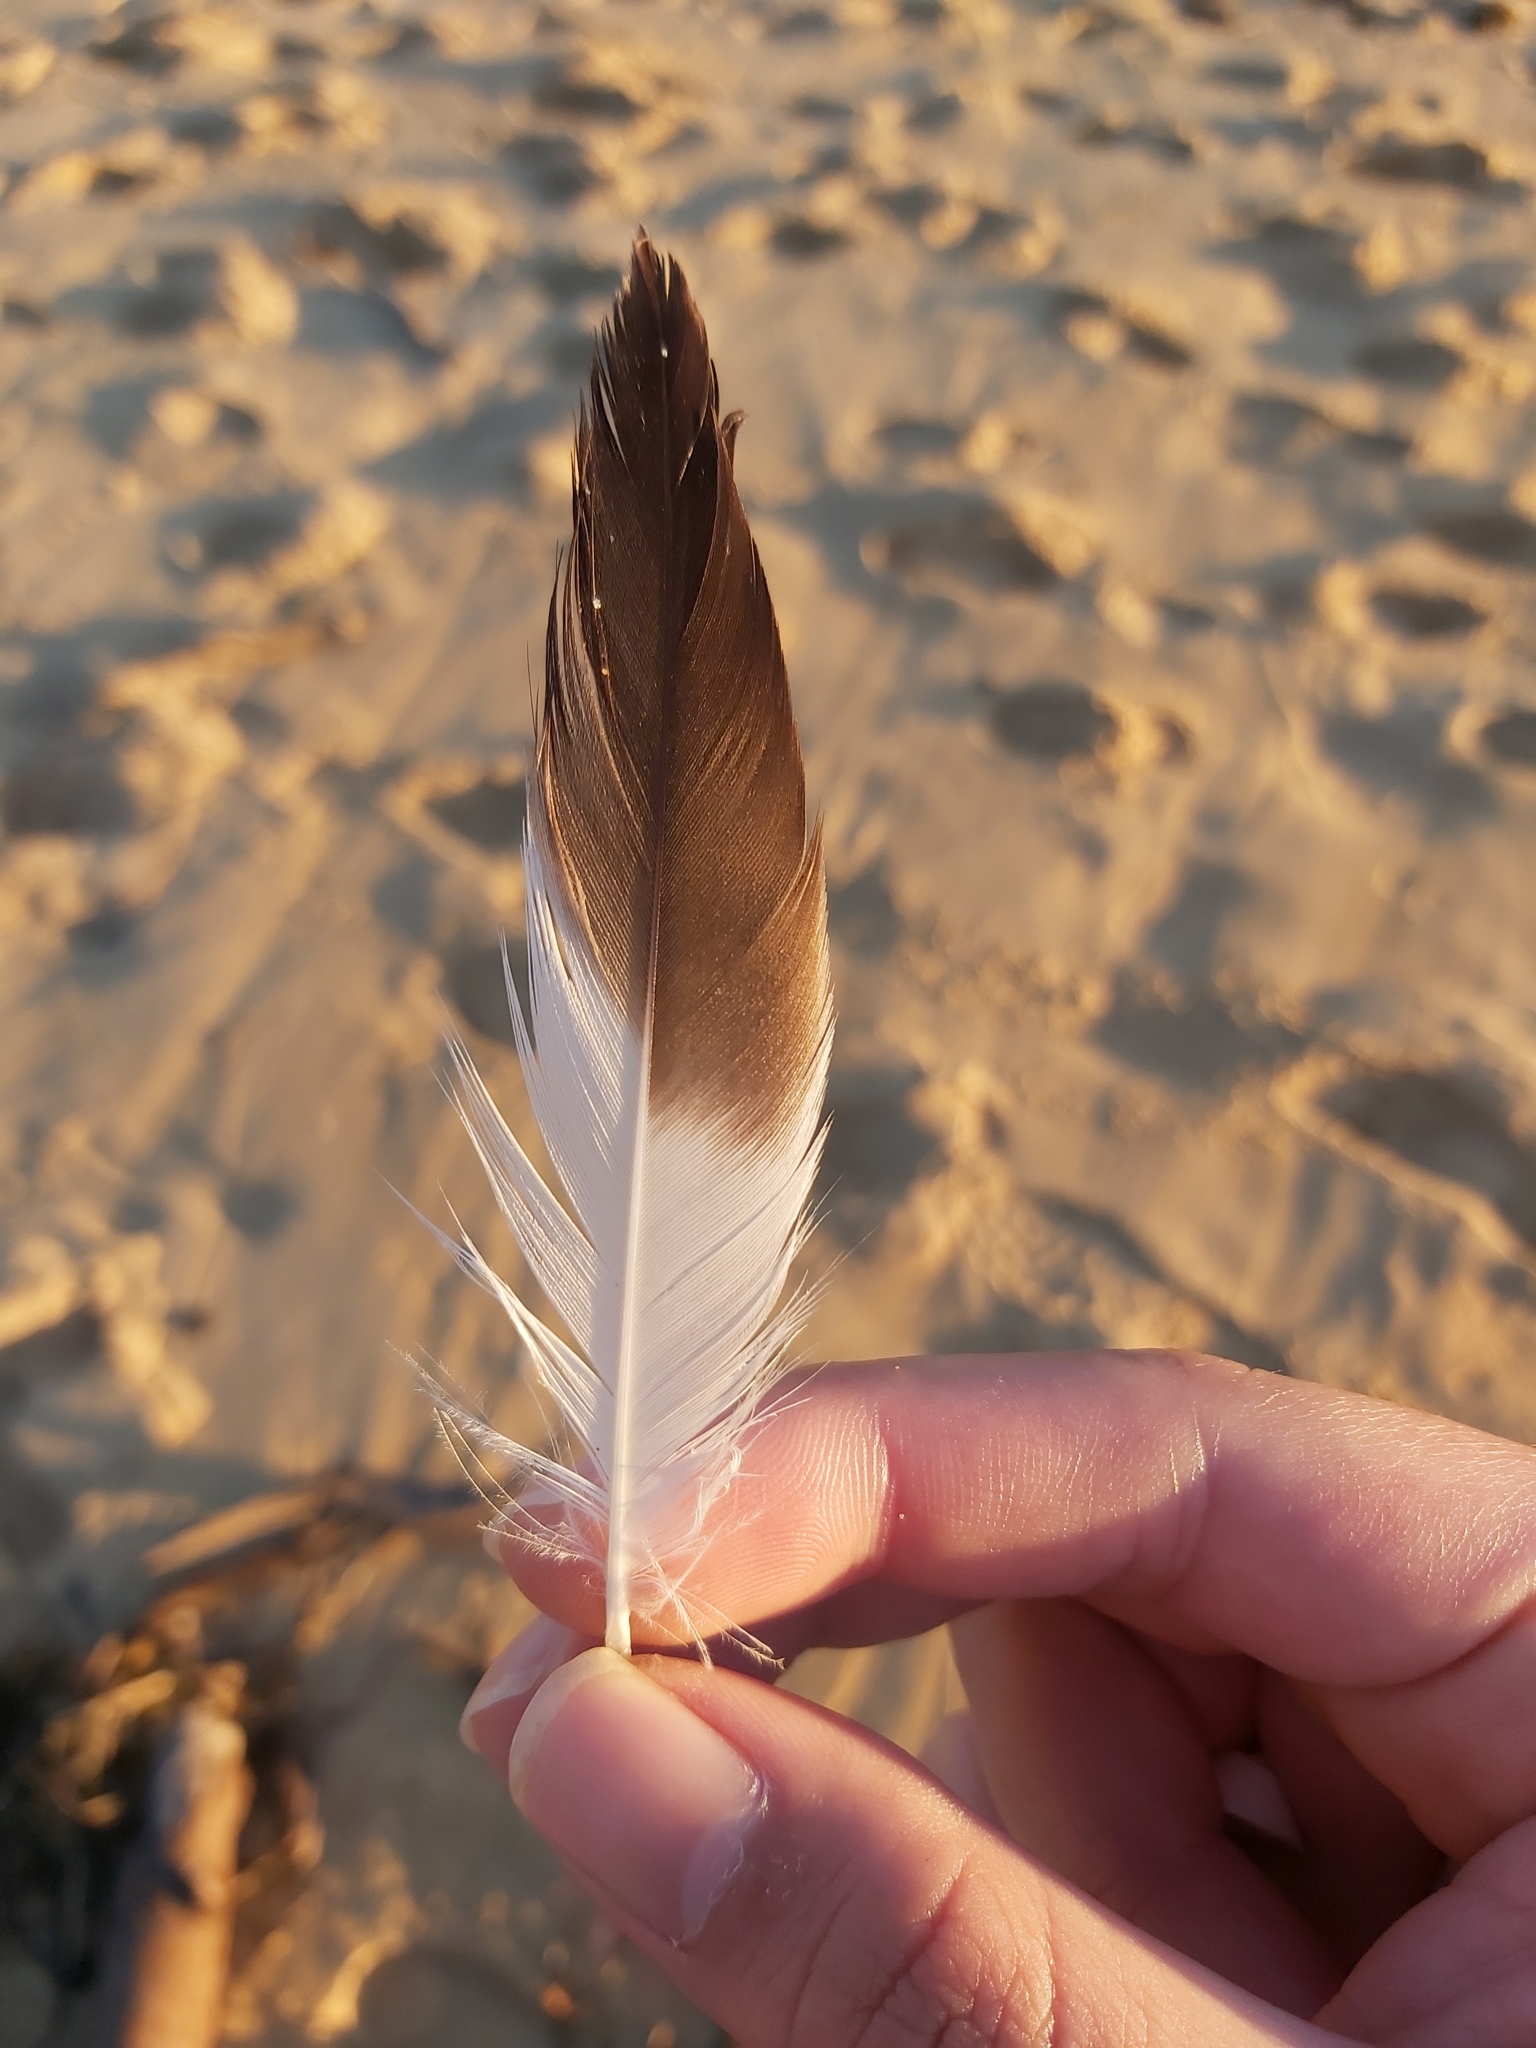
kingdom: Animalia
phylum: Chordata
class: Aves
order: Suliformes
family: Sulidae
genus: Morus
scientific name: Morus serrator
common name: Australasian gannet
